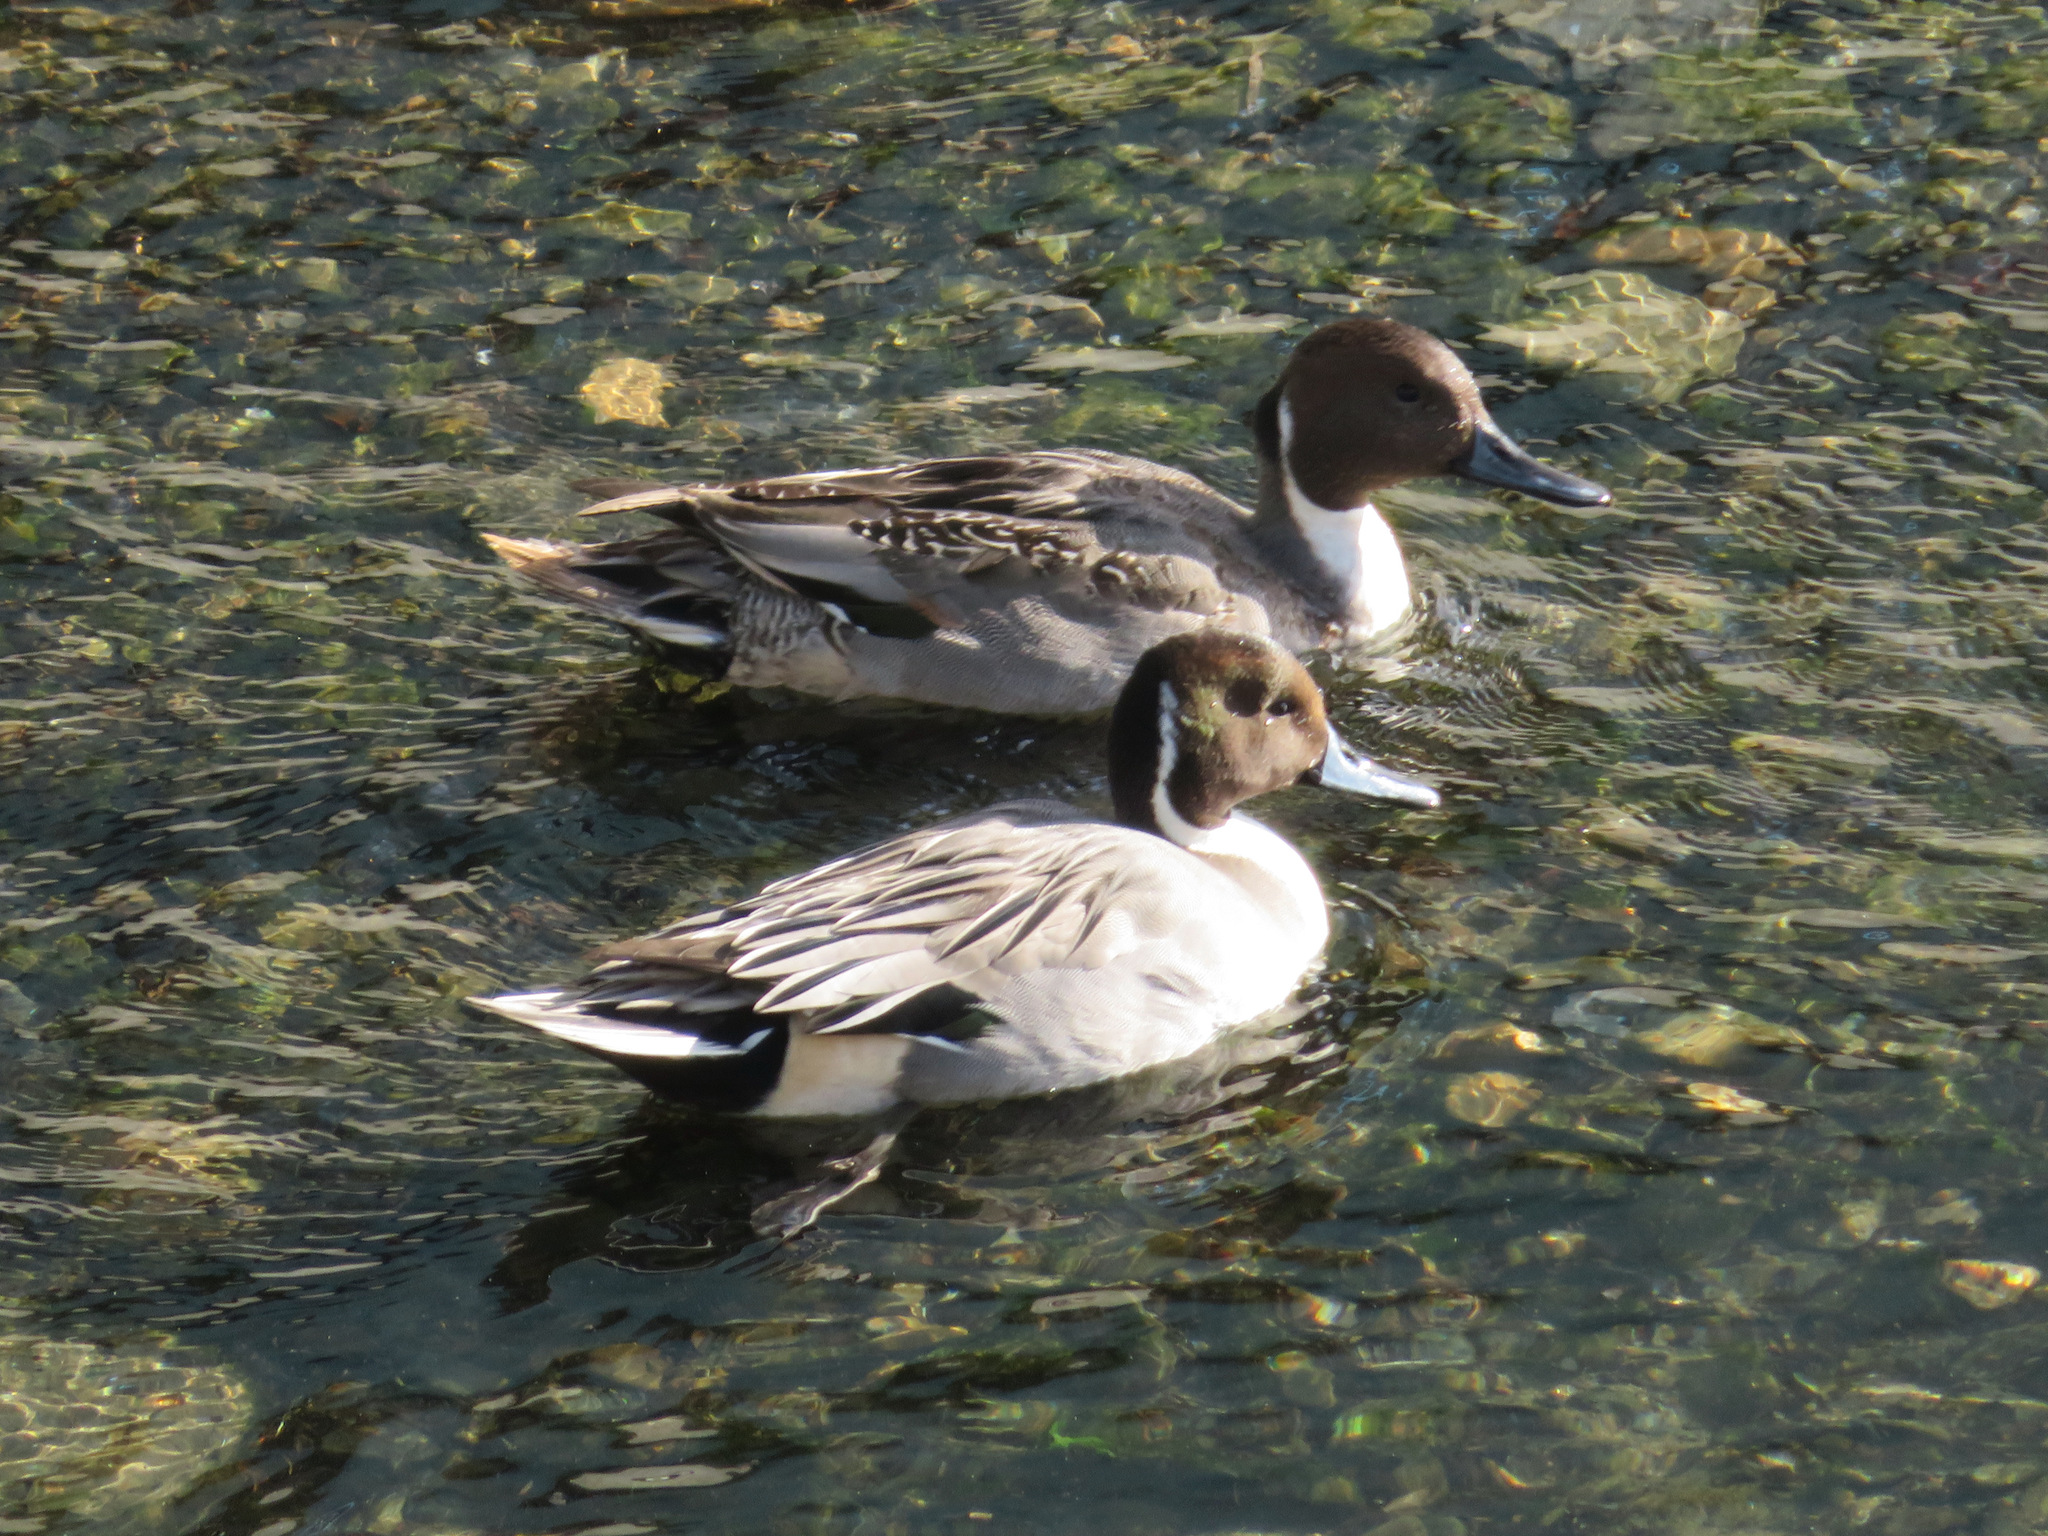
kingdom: Animalia
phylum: Chordata
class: Aves
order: Anseriformes
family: Anatidae
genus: Anas
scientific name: Anas acuta
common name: Northern pintail
